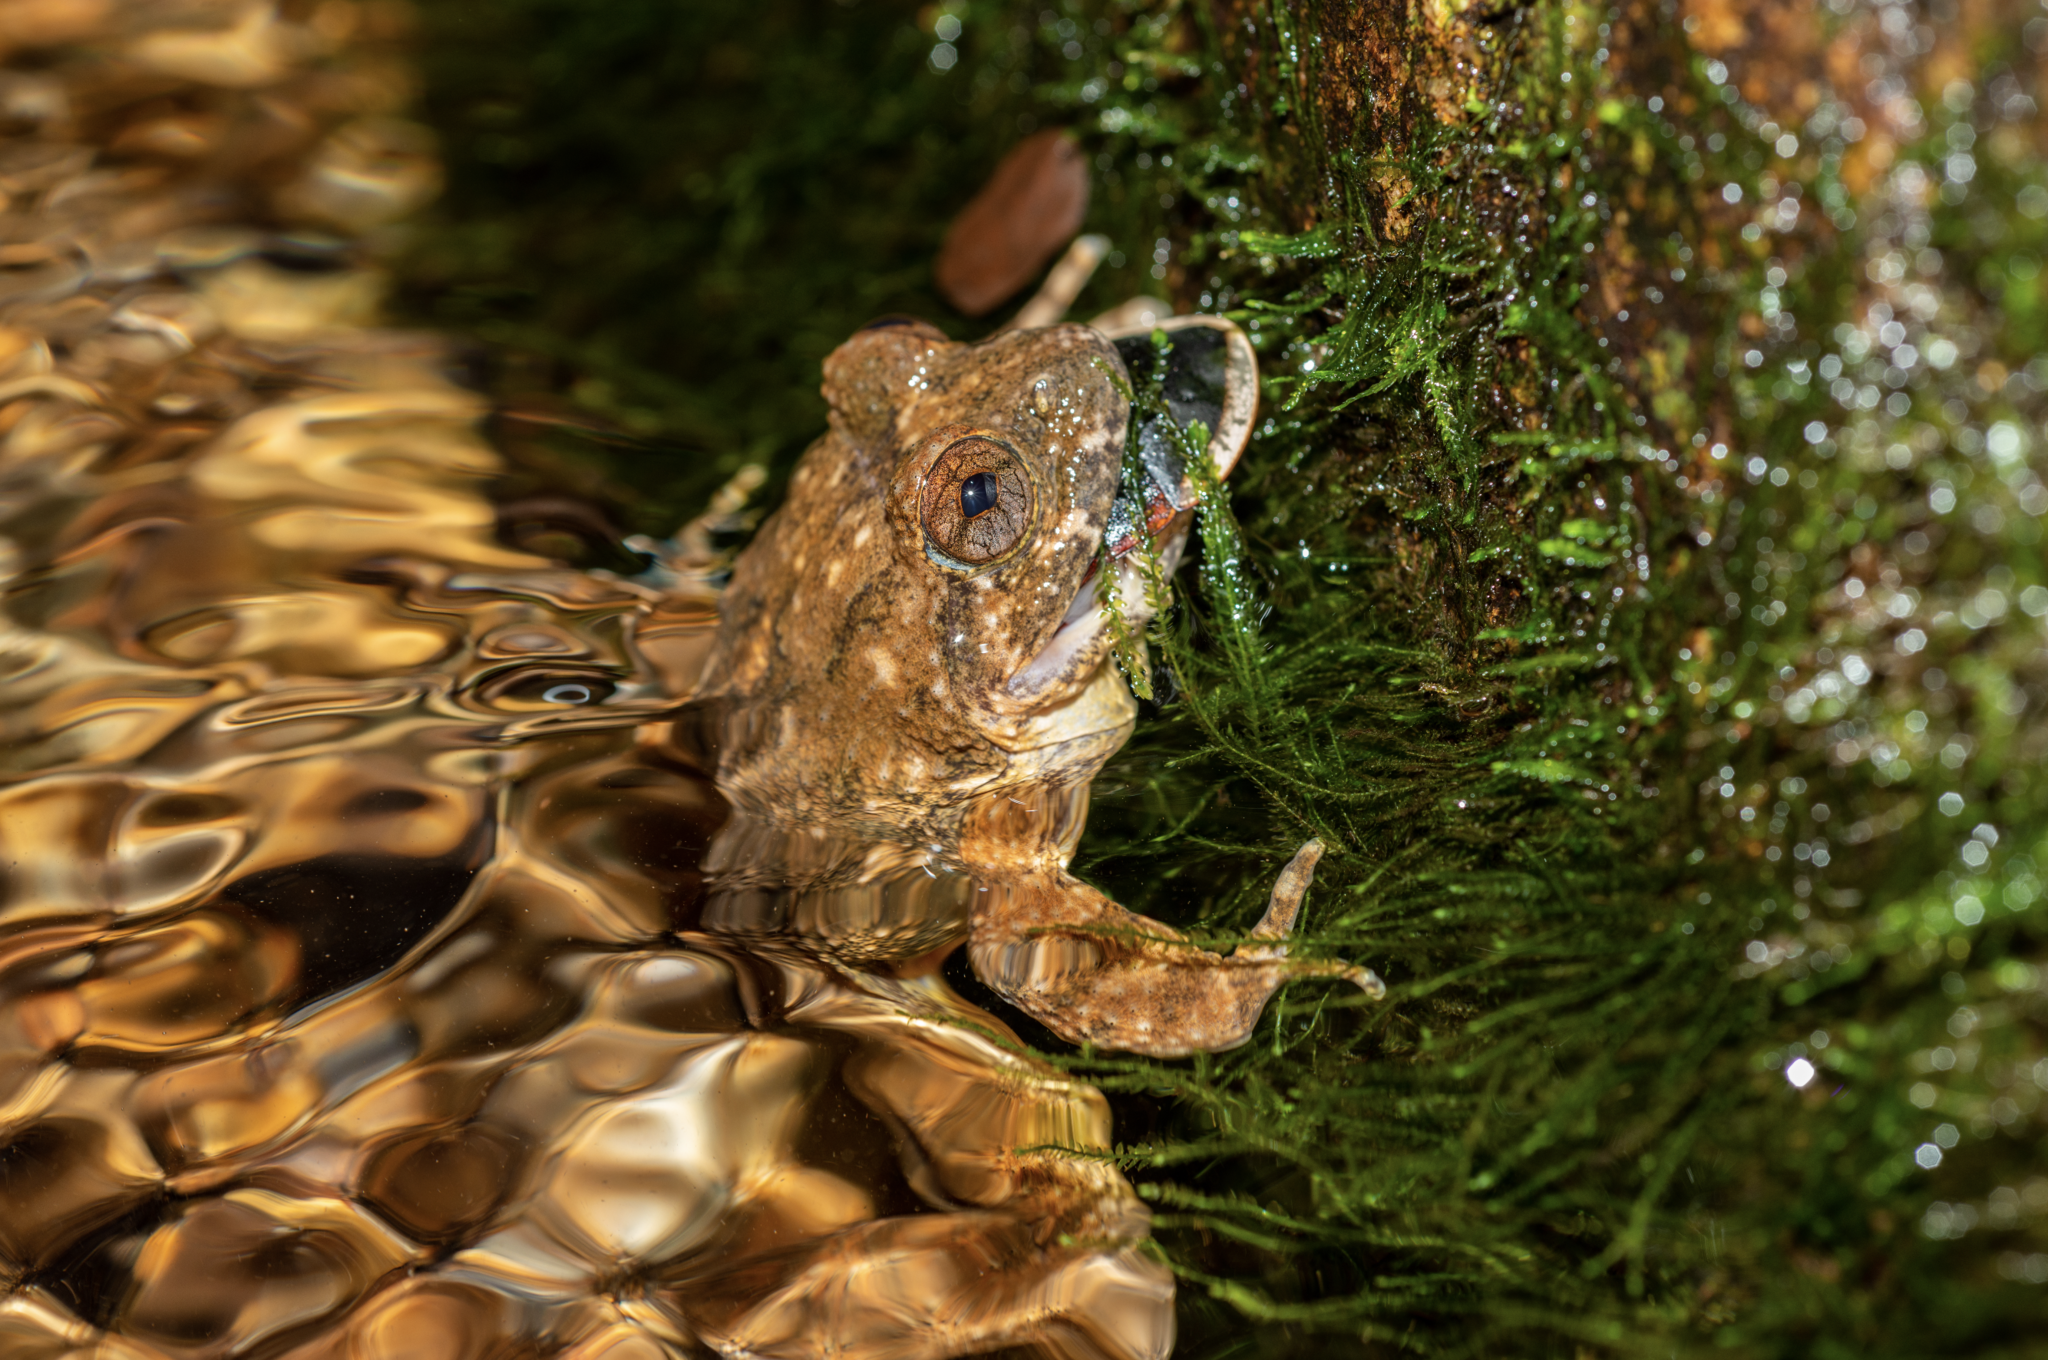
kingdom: Animalia
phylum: Chordata
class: Amphibia
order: Anura
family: Dicroglossidae
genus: Quasipaa
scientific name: Quasipaa exilispinosa
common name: Hong kong paa frog
